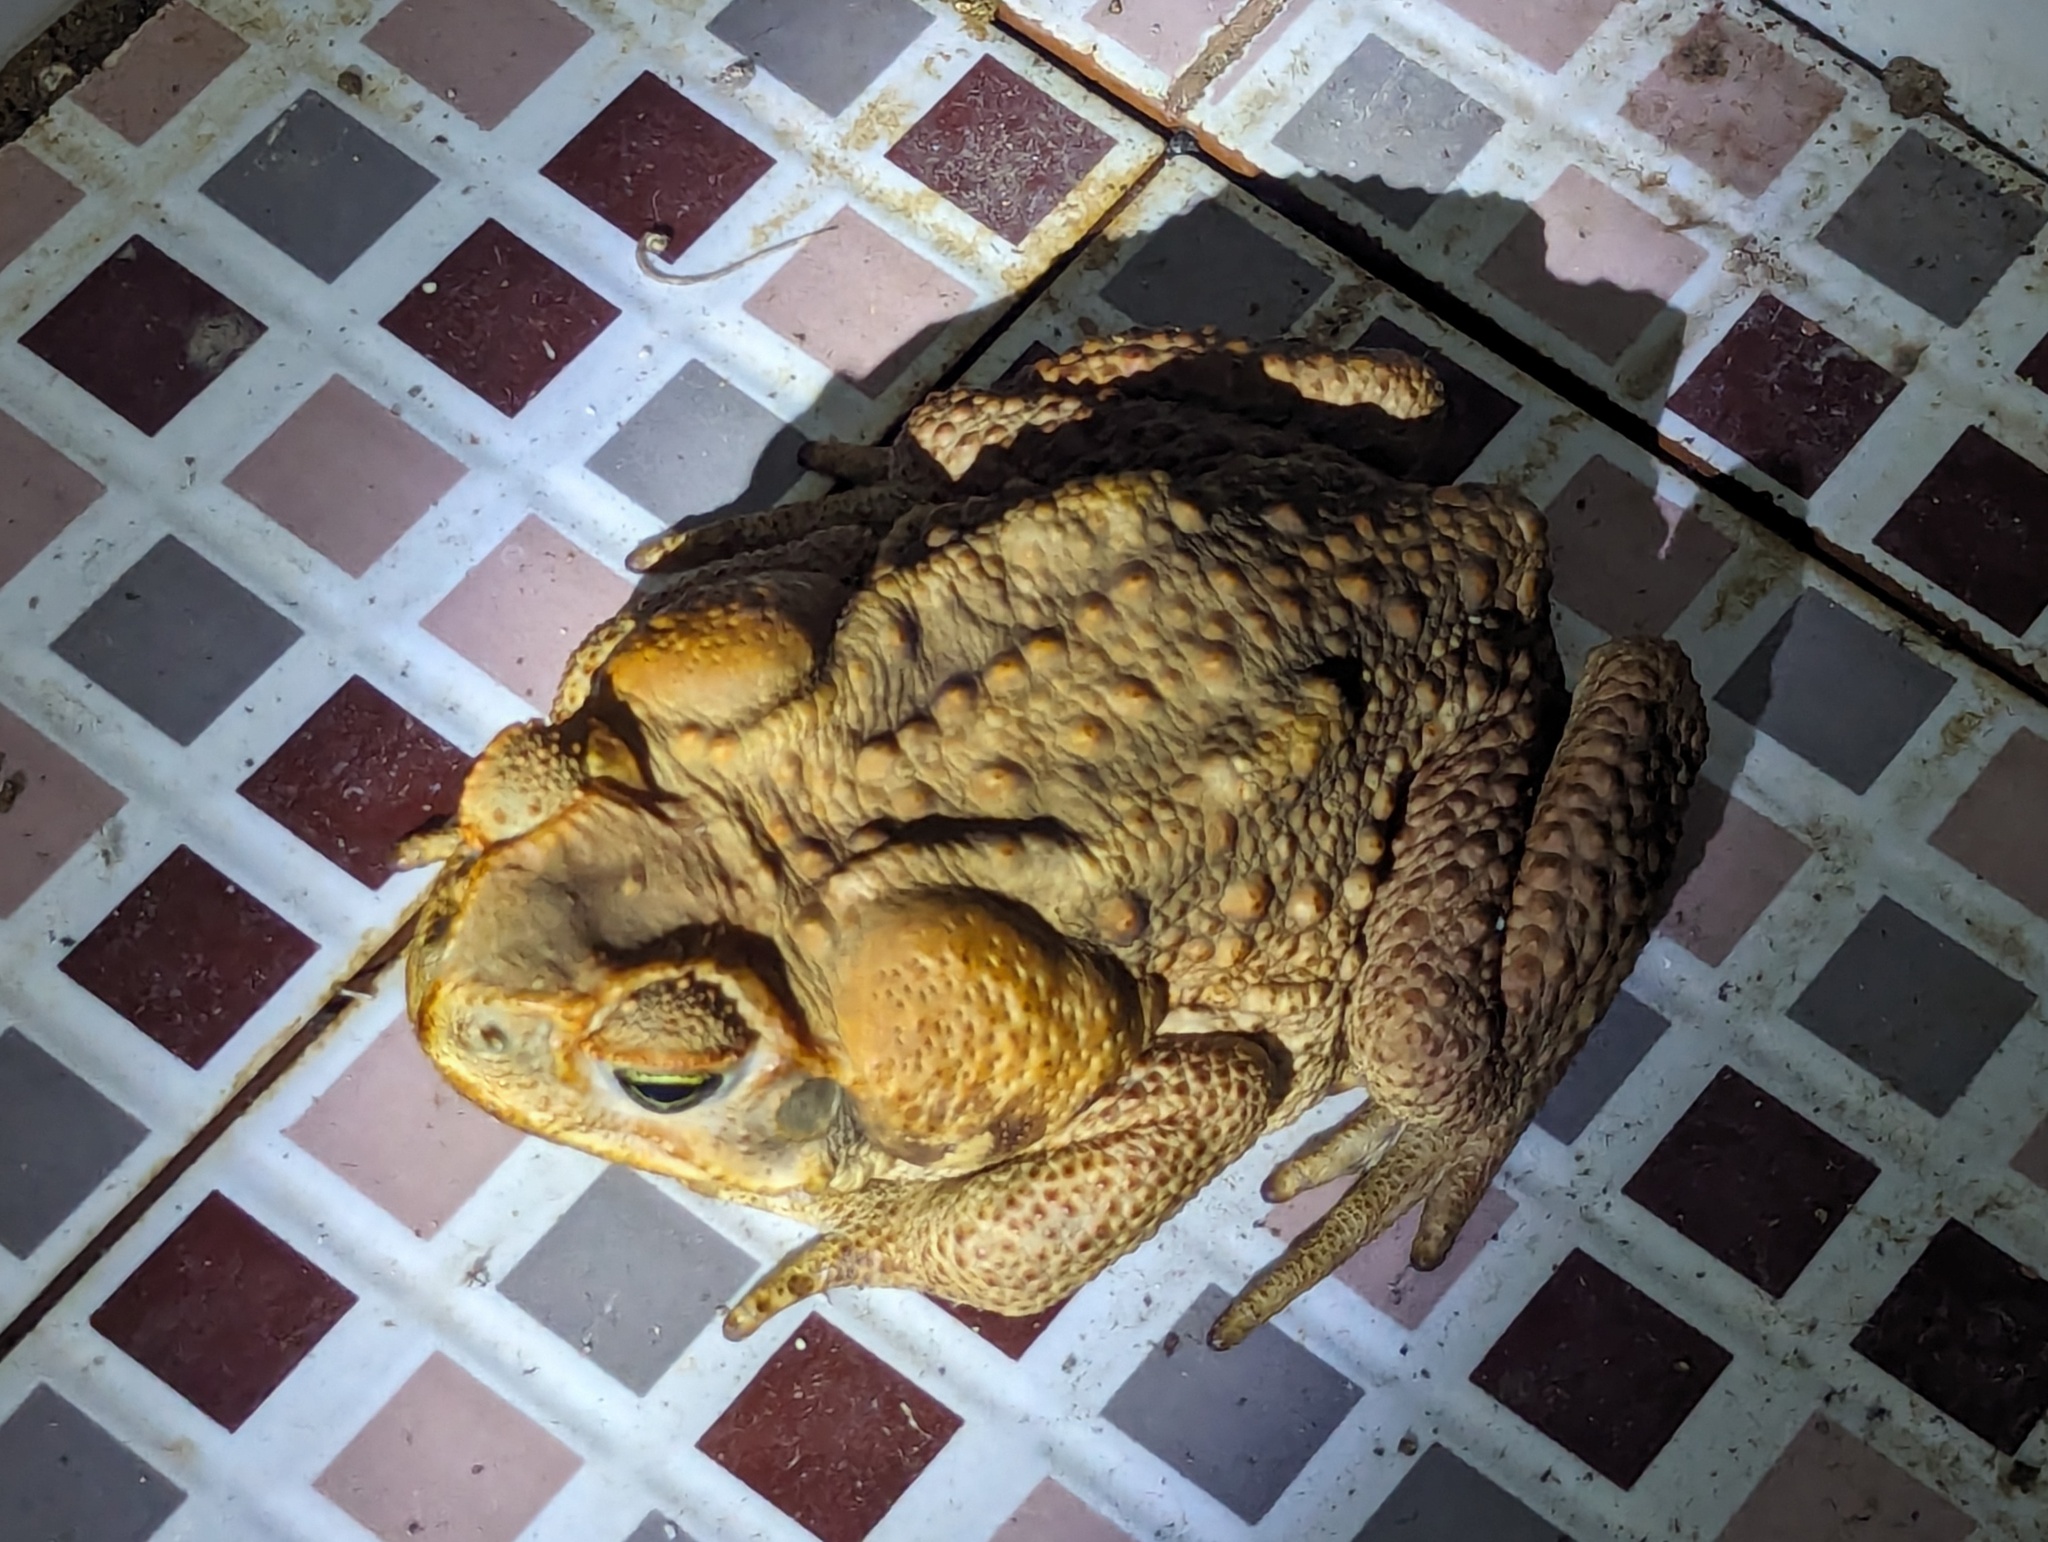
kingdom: Animalia
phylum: Chordata
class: Amphibia
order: Anura
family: Bufonidae
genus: Rhinella
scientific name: Rhinella marina
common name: Cane toad
